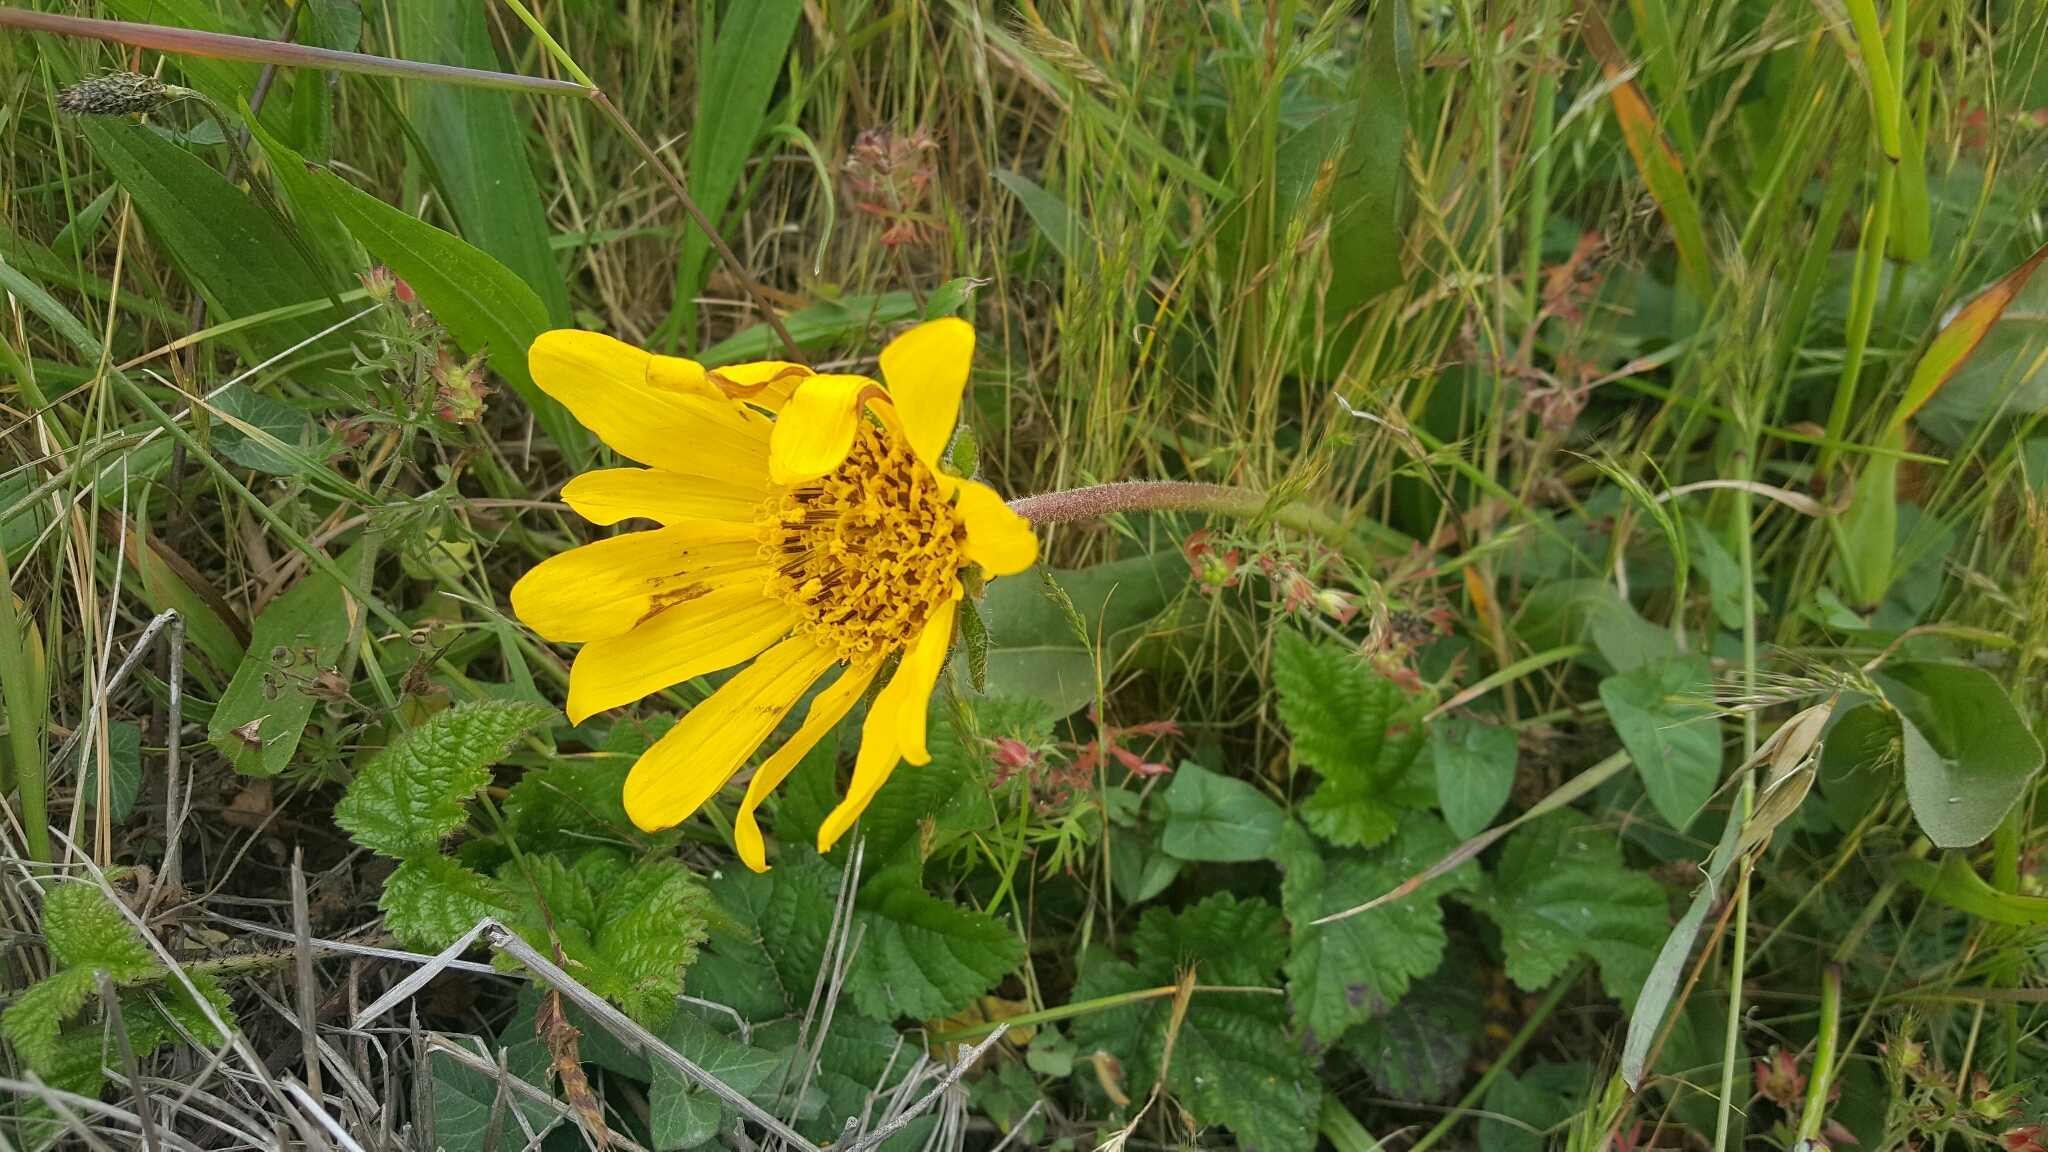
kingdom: Plantae
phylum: Tracheophyta
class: Magnoliopsida
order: Asterales
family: Asteraceae
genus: Wyethia
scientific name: Wyethia angustifolia
